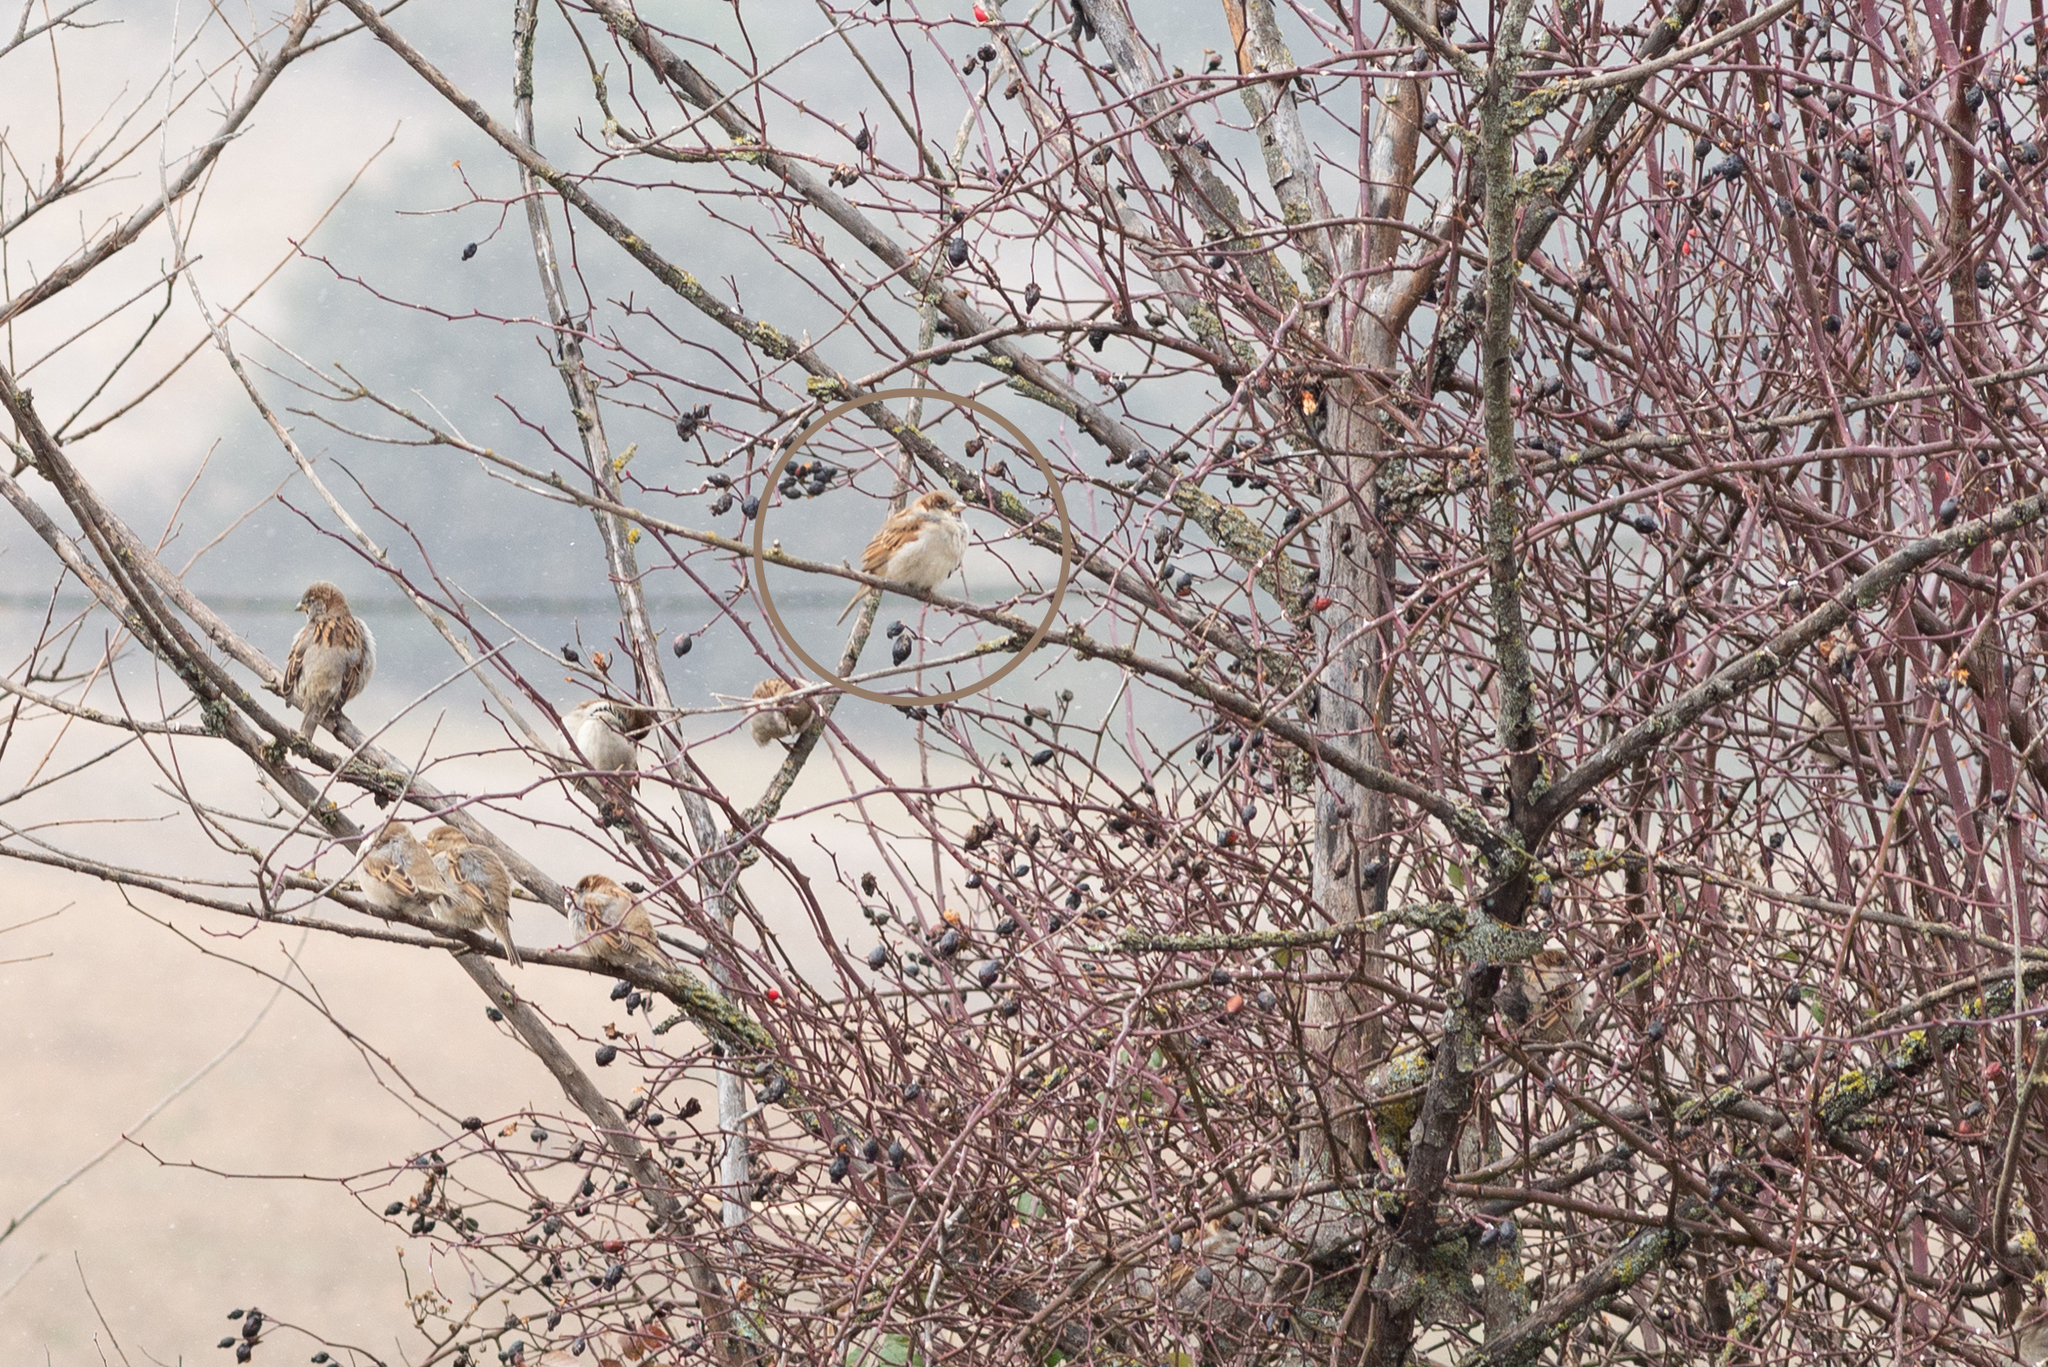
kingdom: Animalia
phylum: Chordata
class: Aves
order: Passeriformes
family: Passeridae
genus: Passer
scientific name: Passer domesticus
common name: House sparrow
